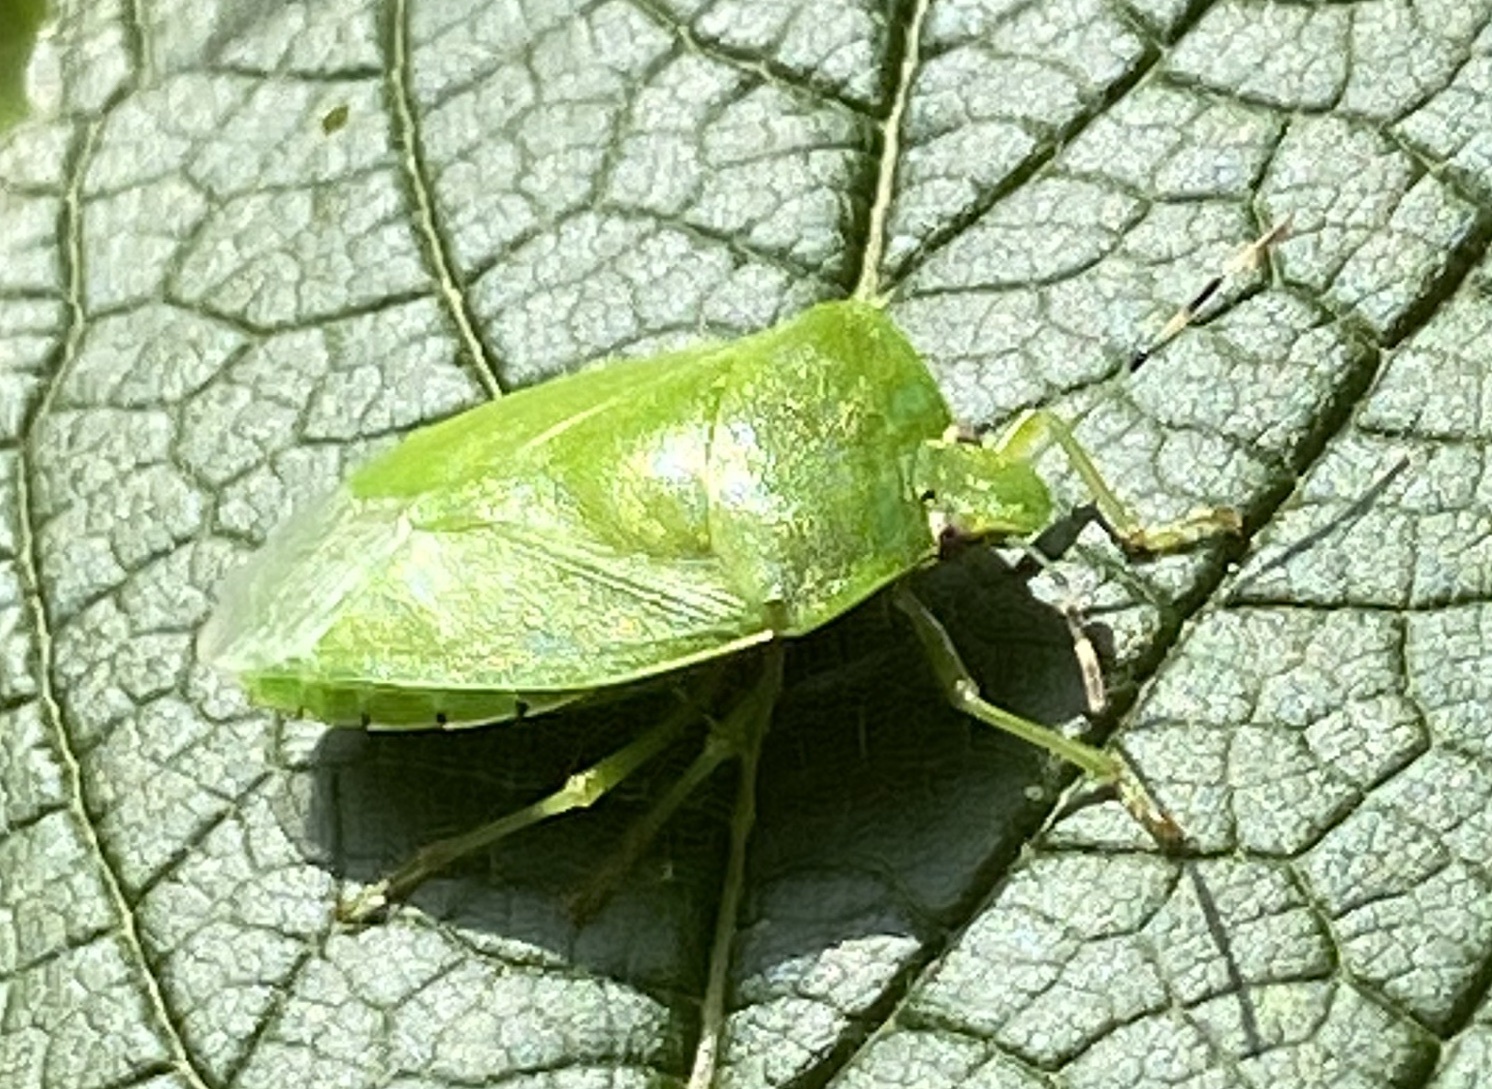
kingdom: Animalia
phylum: Arthropoda
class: Insecta
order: Hemiptera
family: Pentatomidae
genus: Chinavia
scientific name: Chinavia hilaris
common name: Green stink bug
